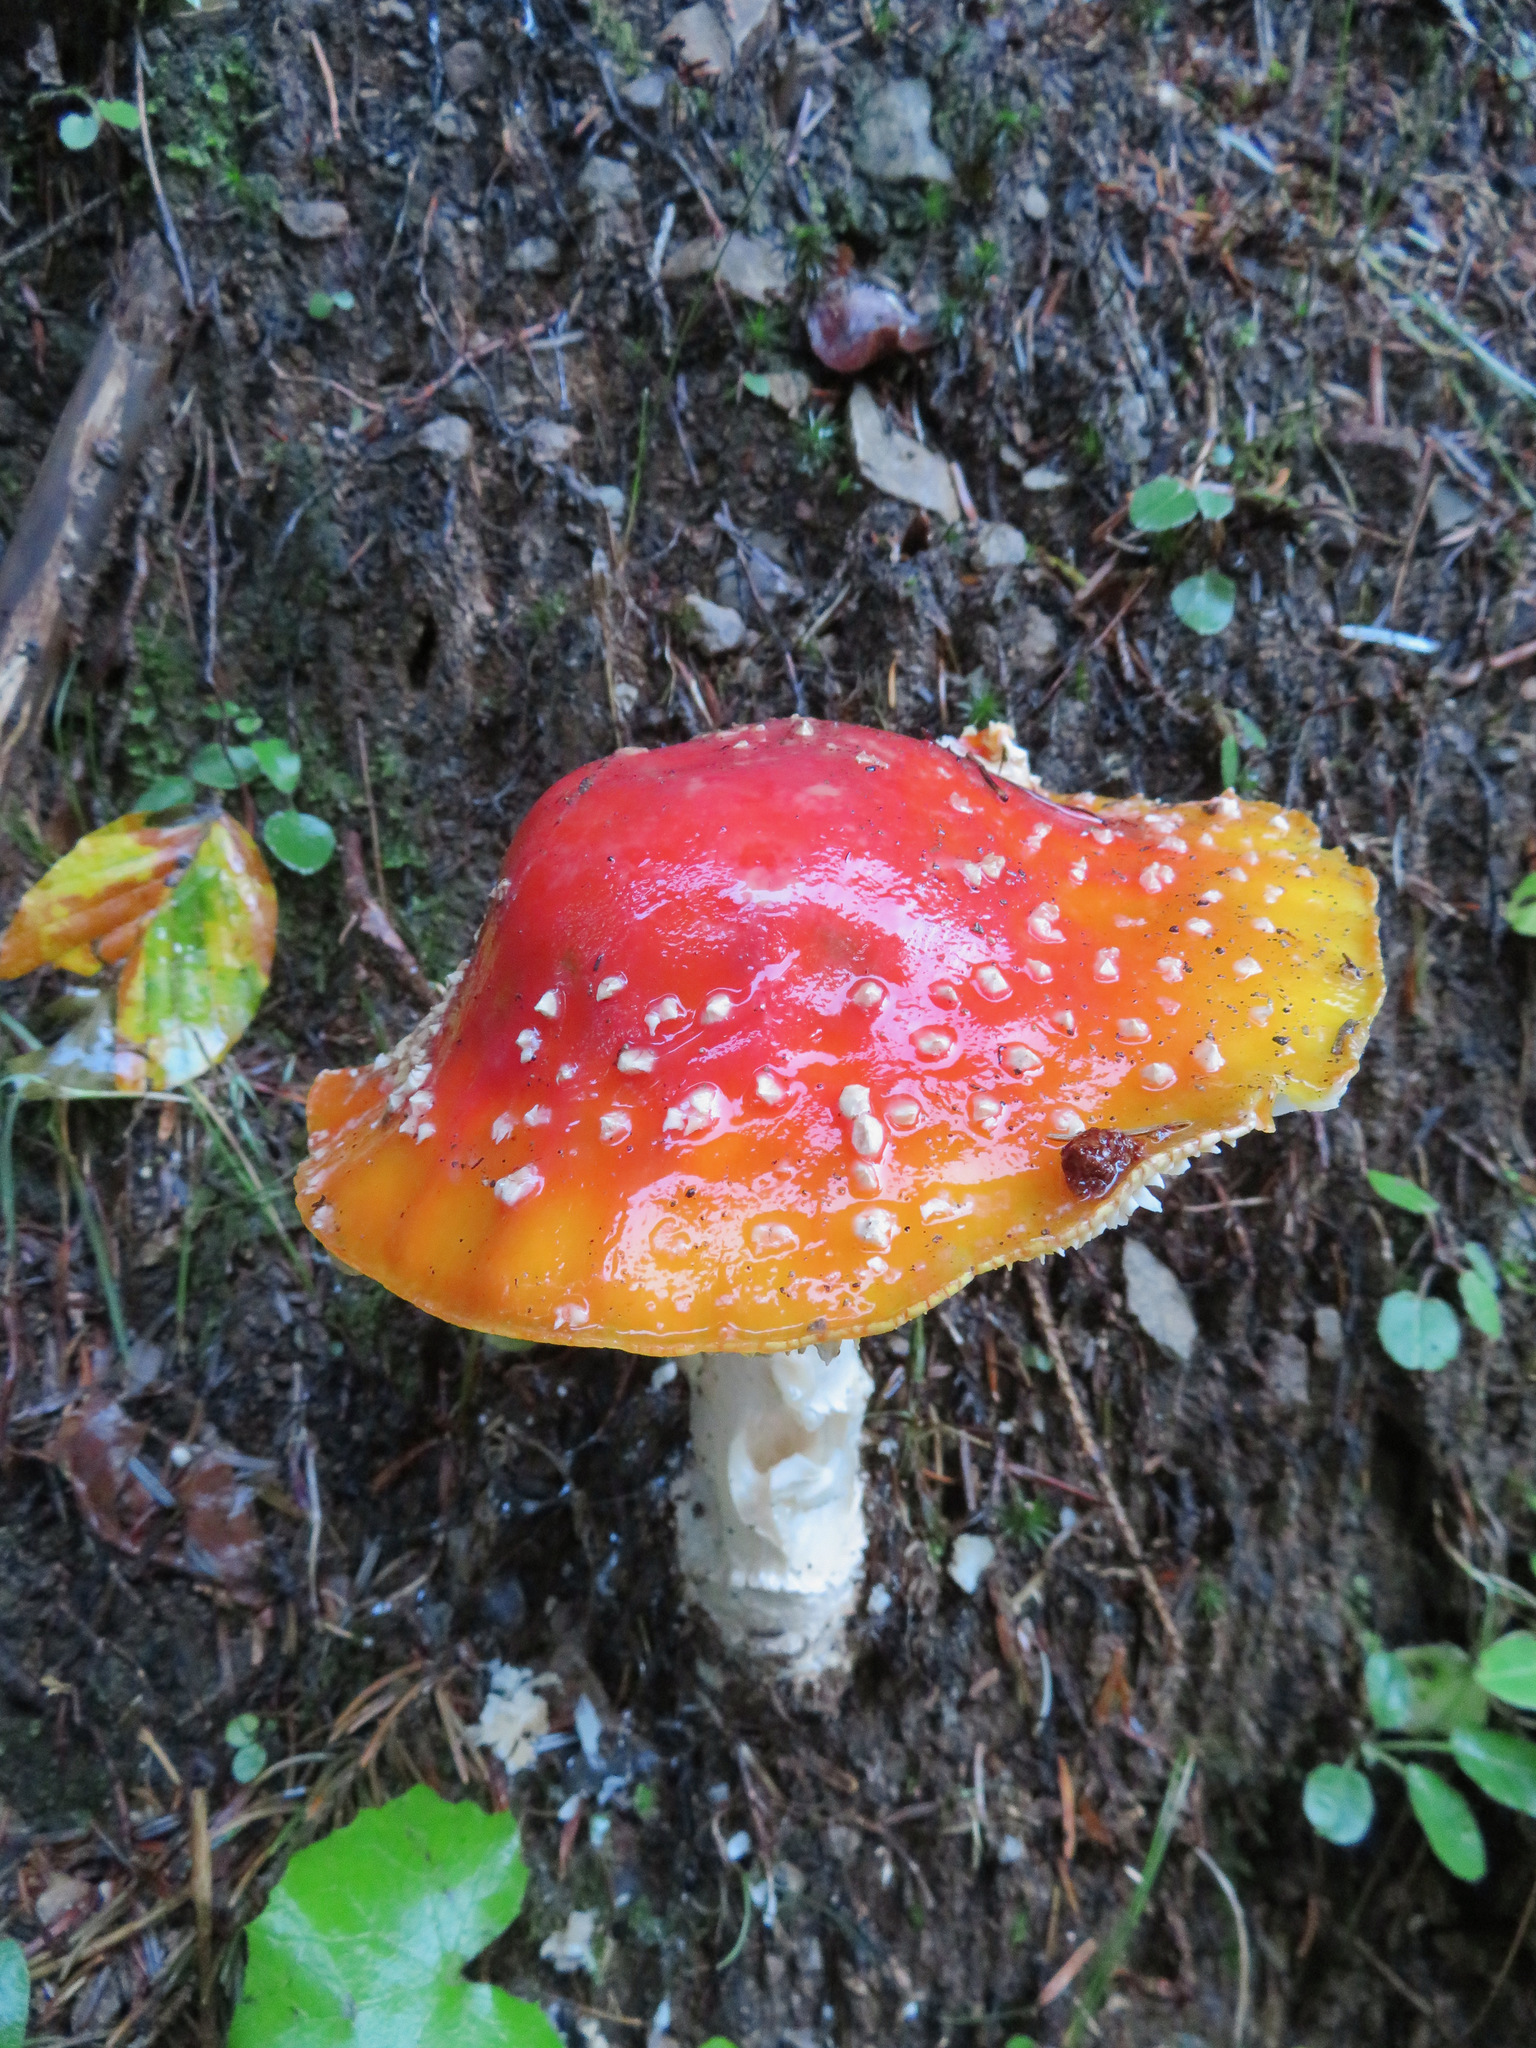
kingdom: Fungi
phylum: Basidiomycota
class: Agaricomycetes
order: Agaricales
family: Amanitaceae
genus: Amanita
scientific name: Amanita muscaria
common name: Fly agaric
